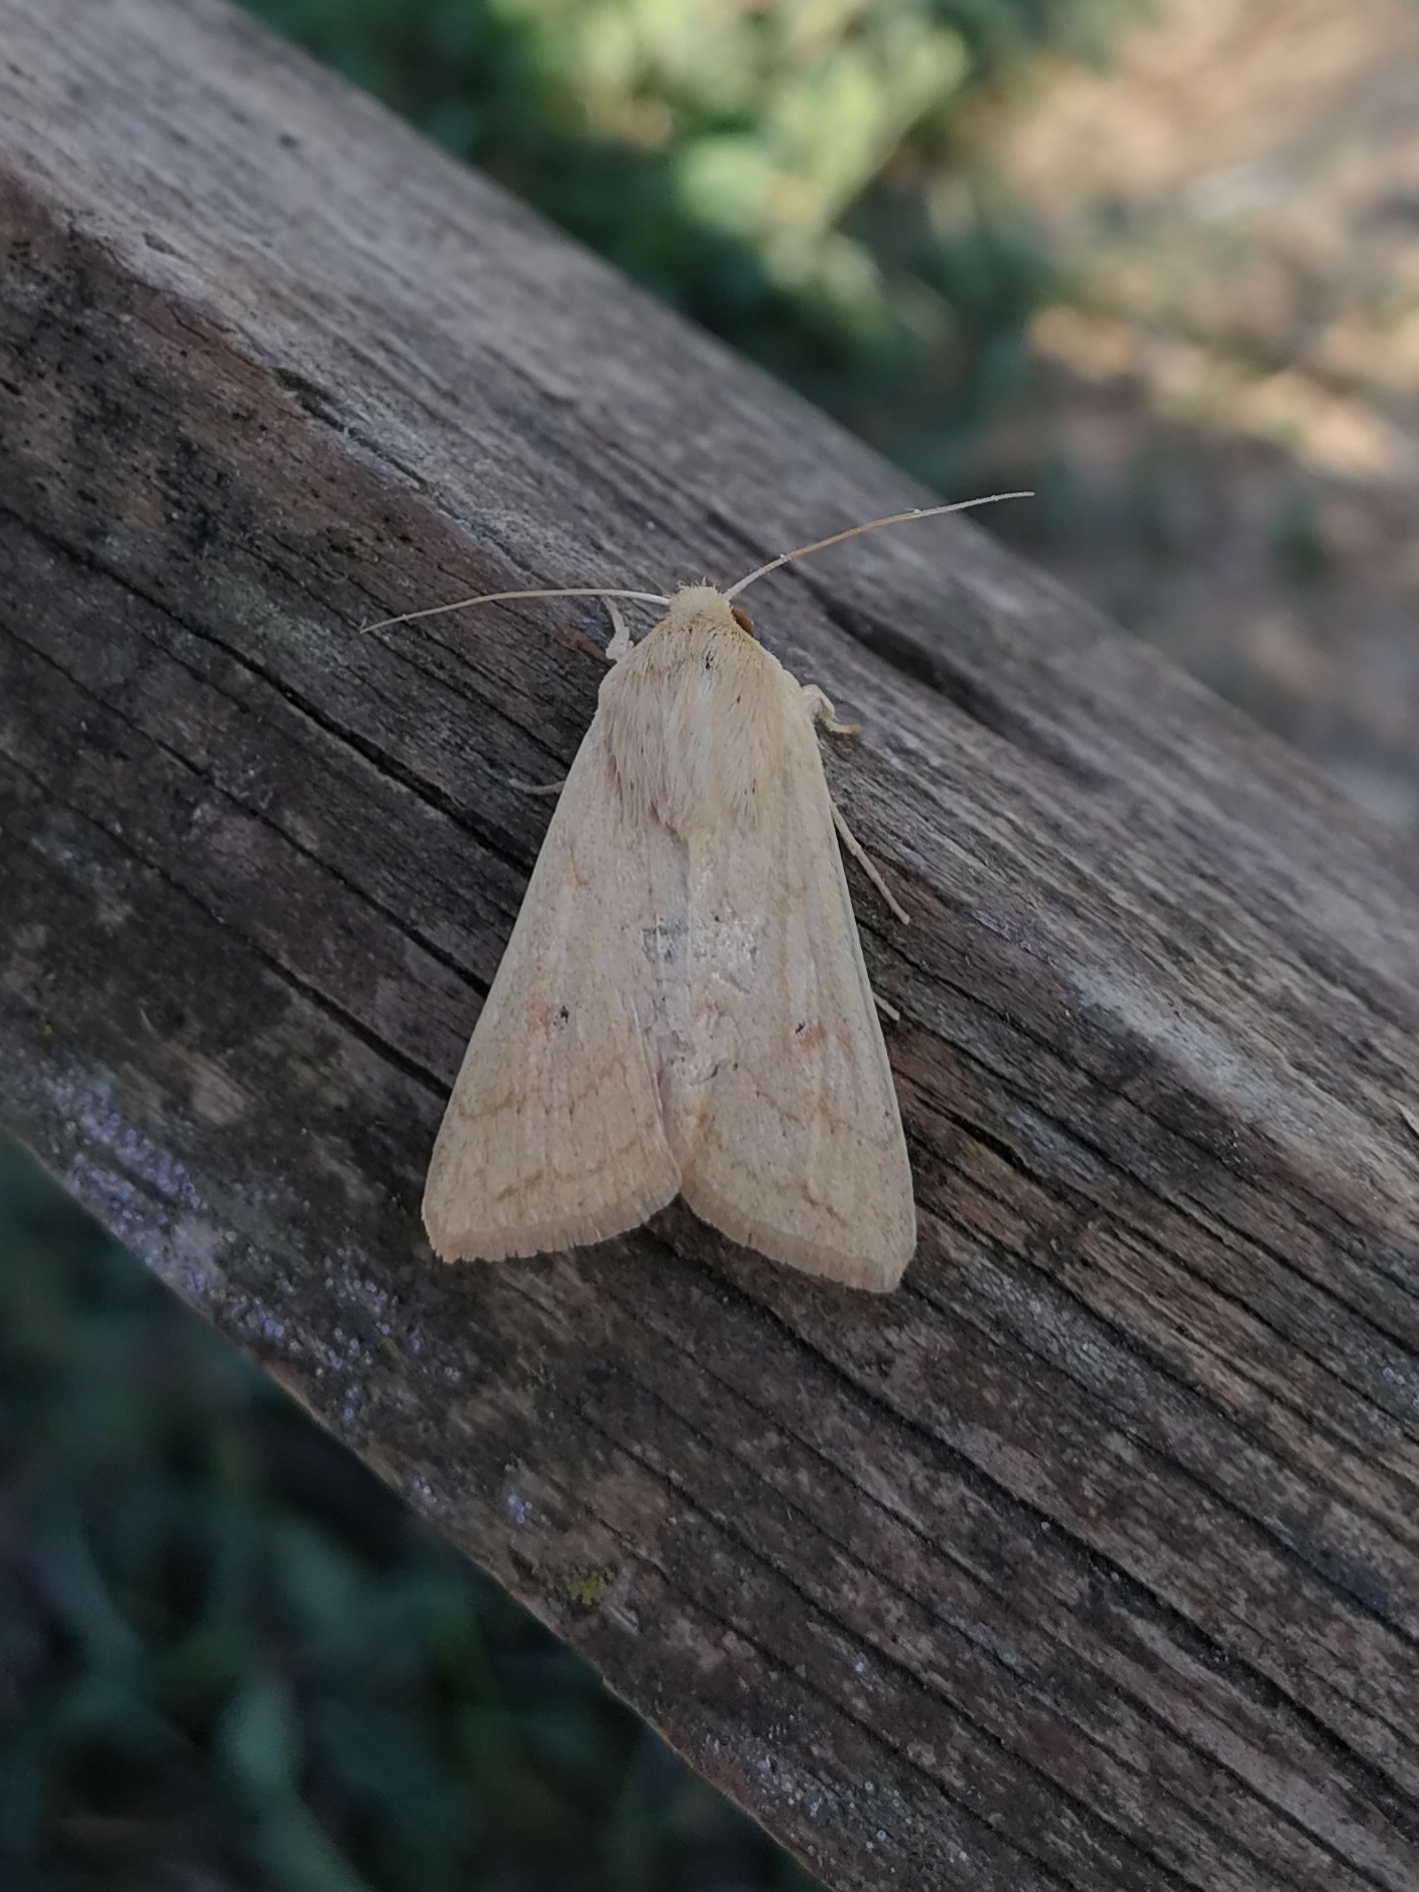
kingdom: Animalia
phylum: Arthropoda
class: Insecta
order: Lepidoptera
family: Noctuidae
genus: Mythimna
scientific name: Mythimna vitellina
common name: Delicate
